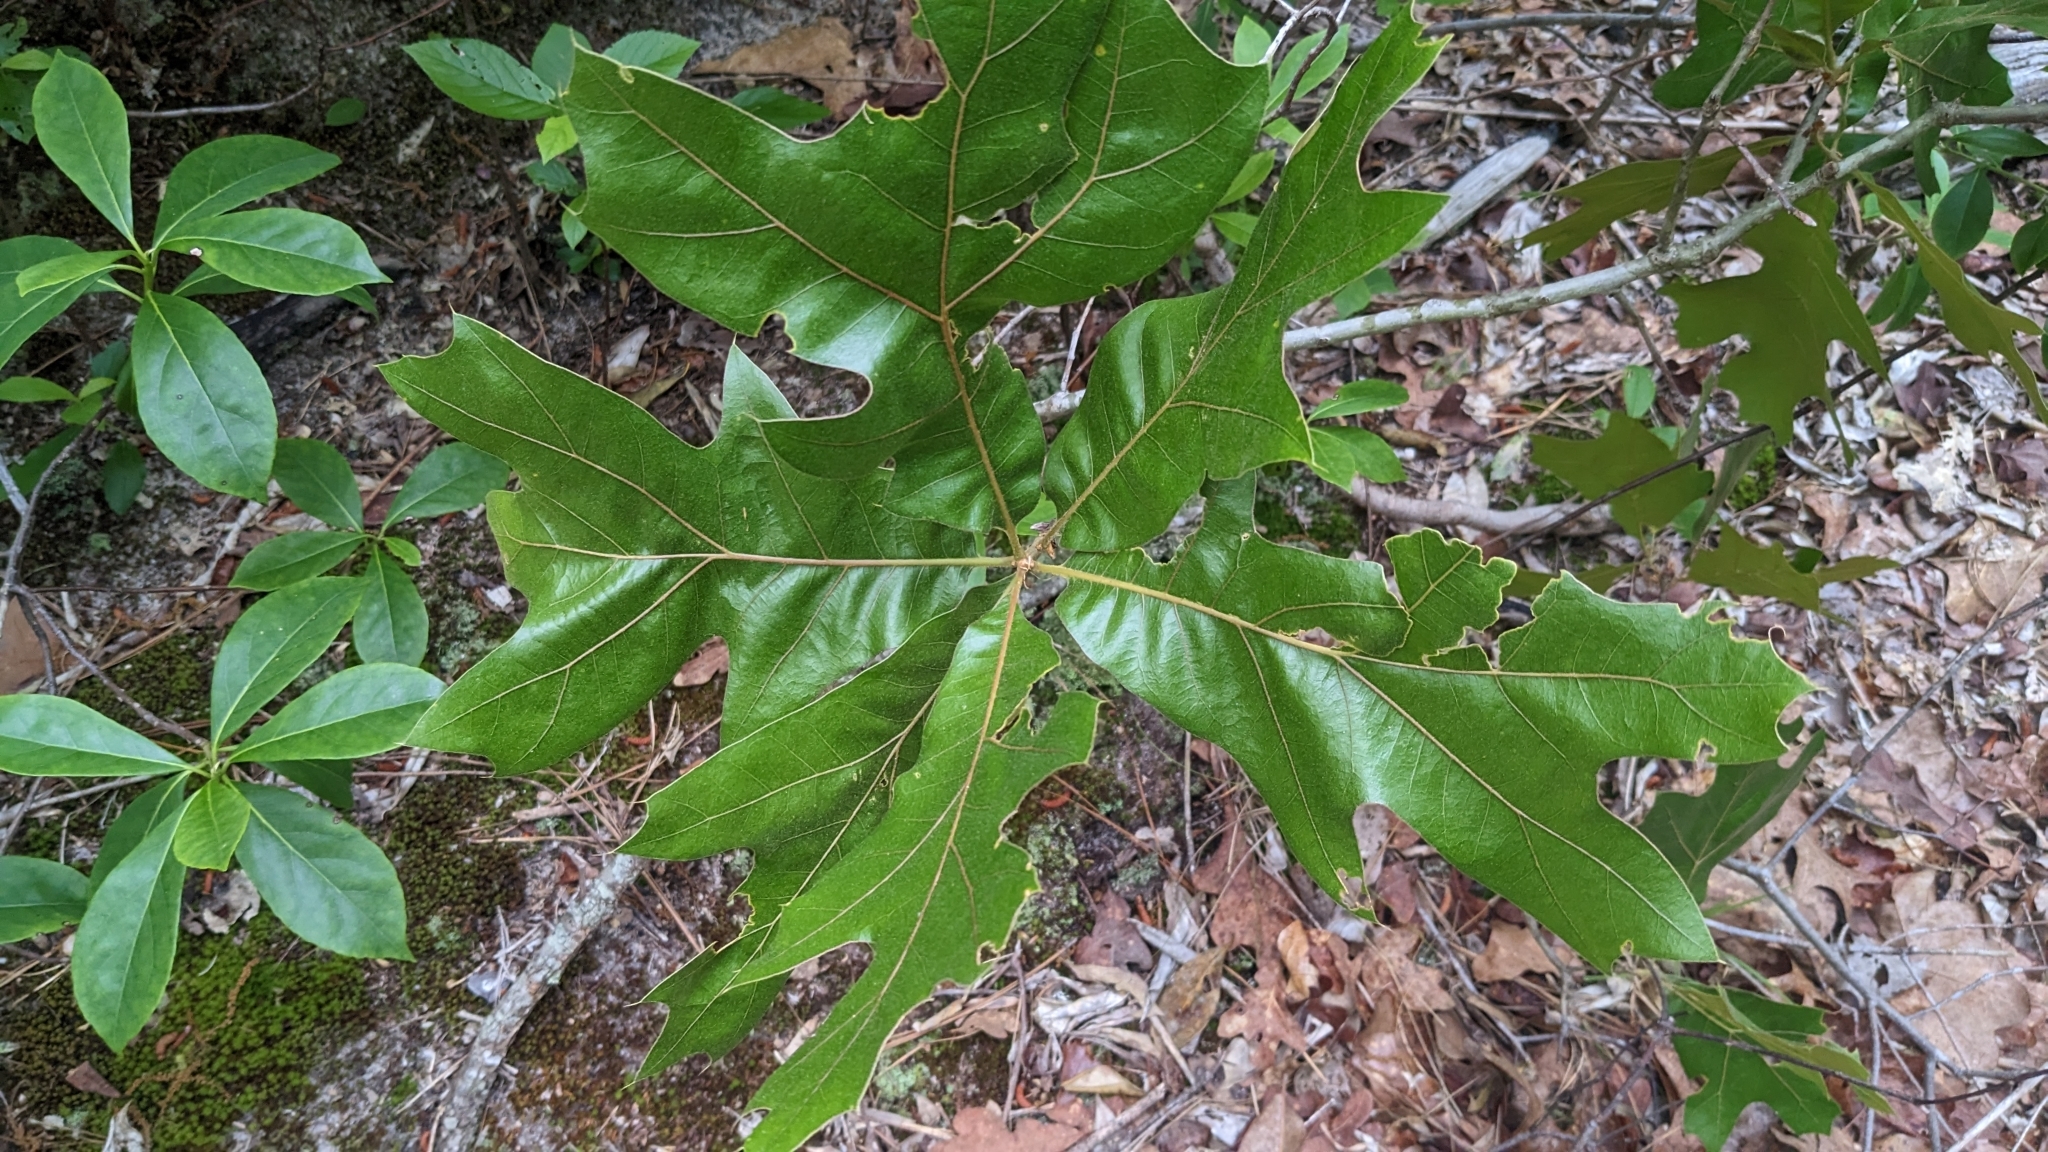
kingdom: Plantae
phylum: Tracheophyta
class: Magnoliopsida
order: Fagales
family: Fagaceae
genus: Quercus
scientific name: Quercus laevis
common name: Turkey oak
